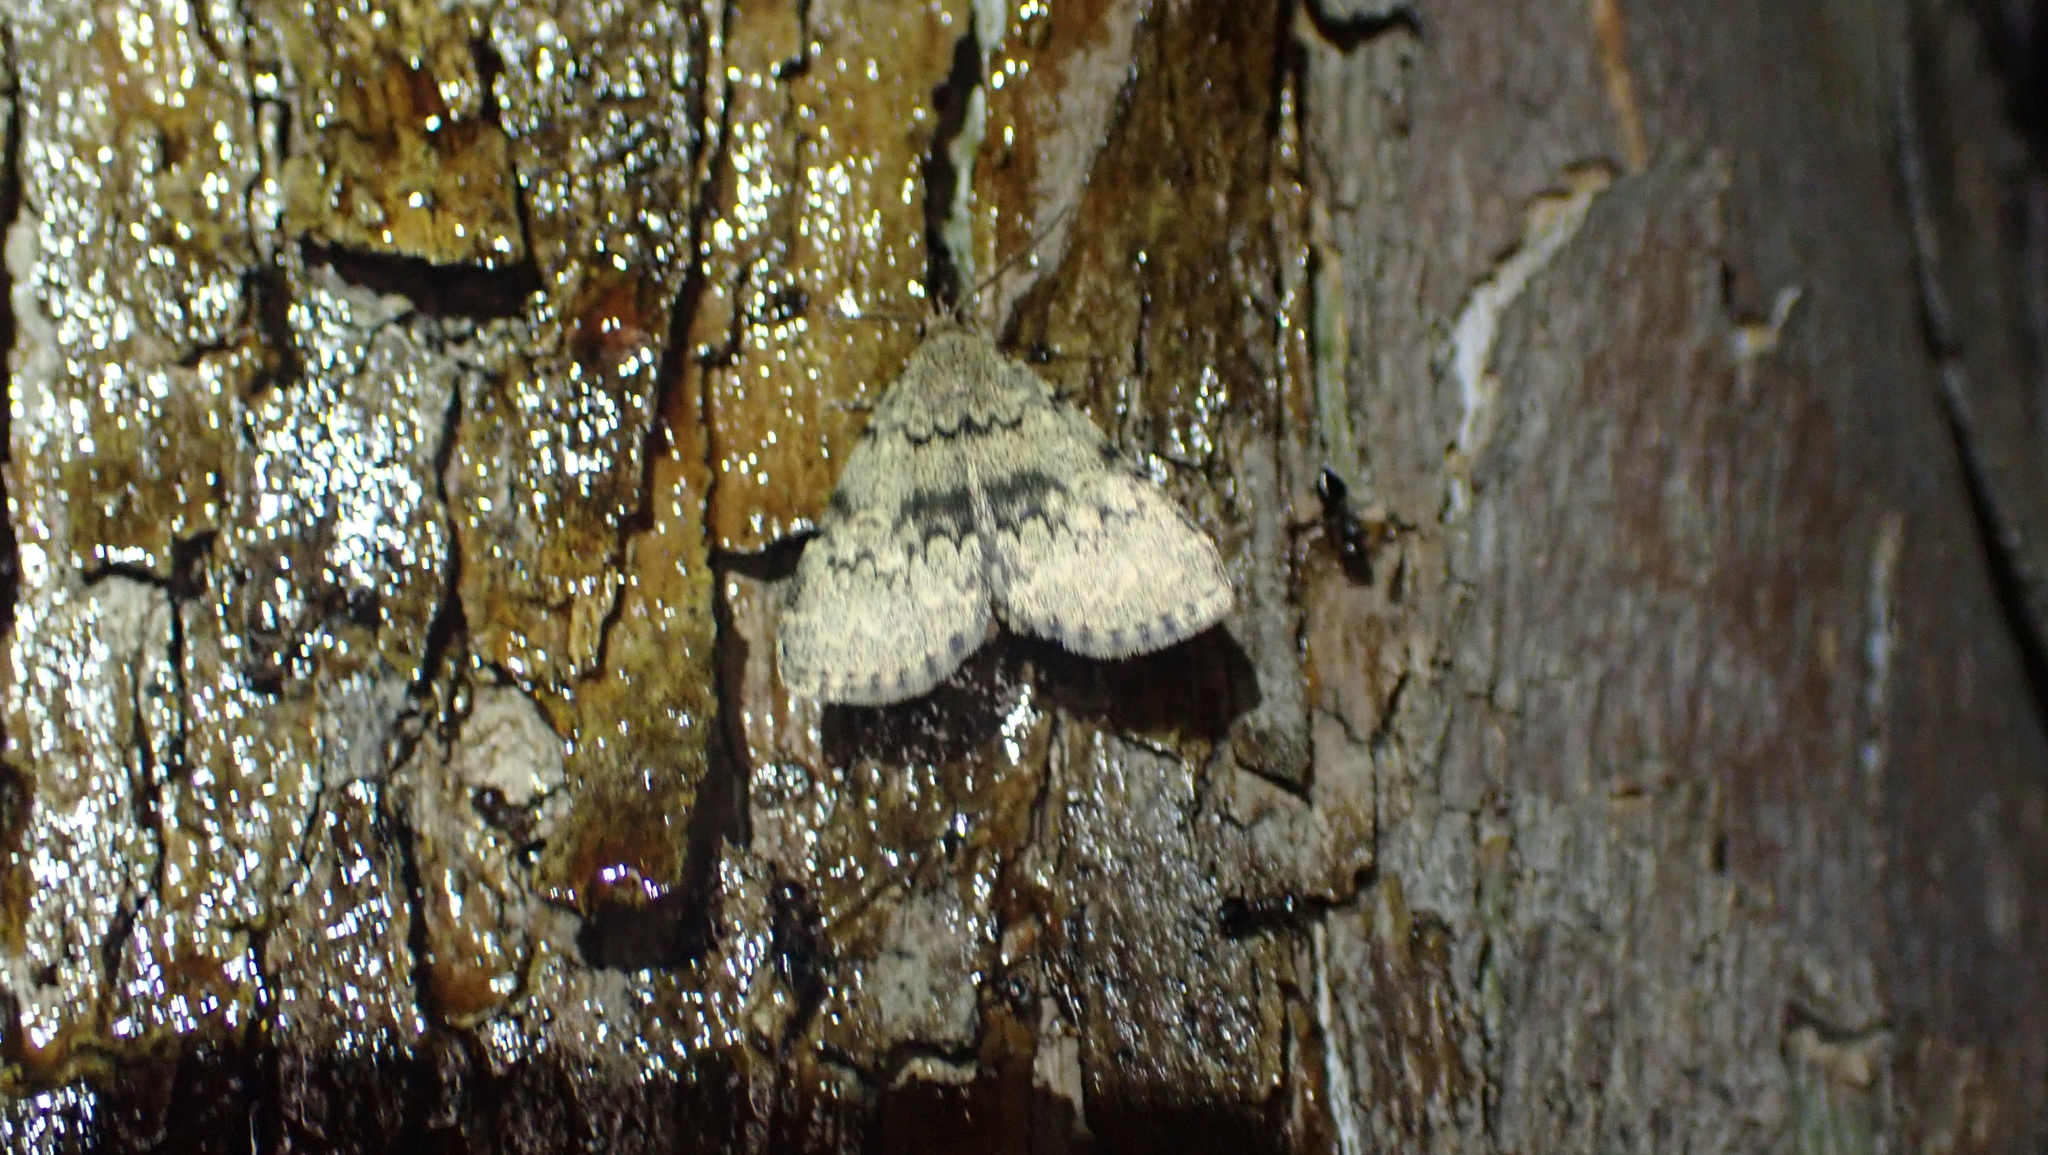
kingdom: Animalia
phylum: Arthropoda
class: Insecta
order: Lepidoptera
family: Erebidae
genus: Idia
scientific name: Idia denticulalis
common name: Toothed idia moth
